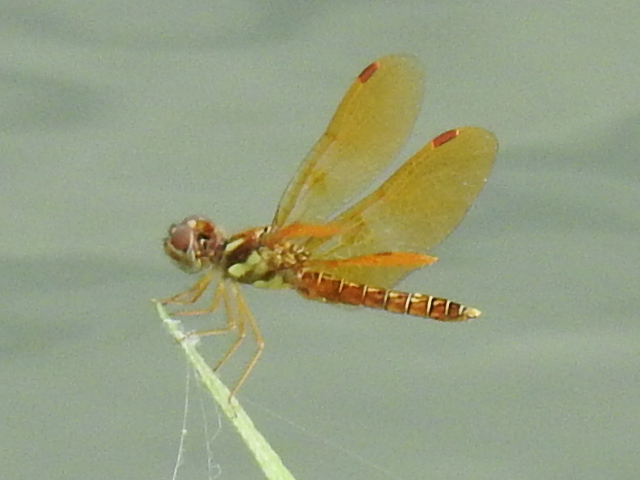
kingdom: Animalia
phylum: Arthropoda
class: Insecta
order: Odonata
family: Libellulidae
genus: Perithemis
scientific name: Perithemis tenera
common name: Eastern amberwing
